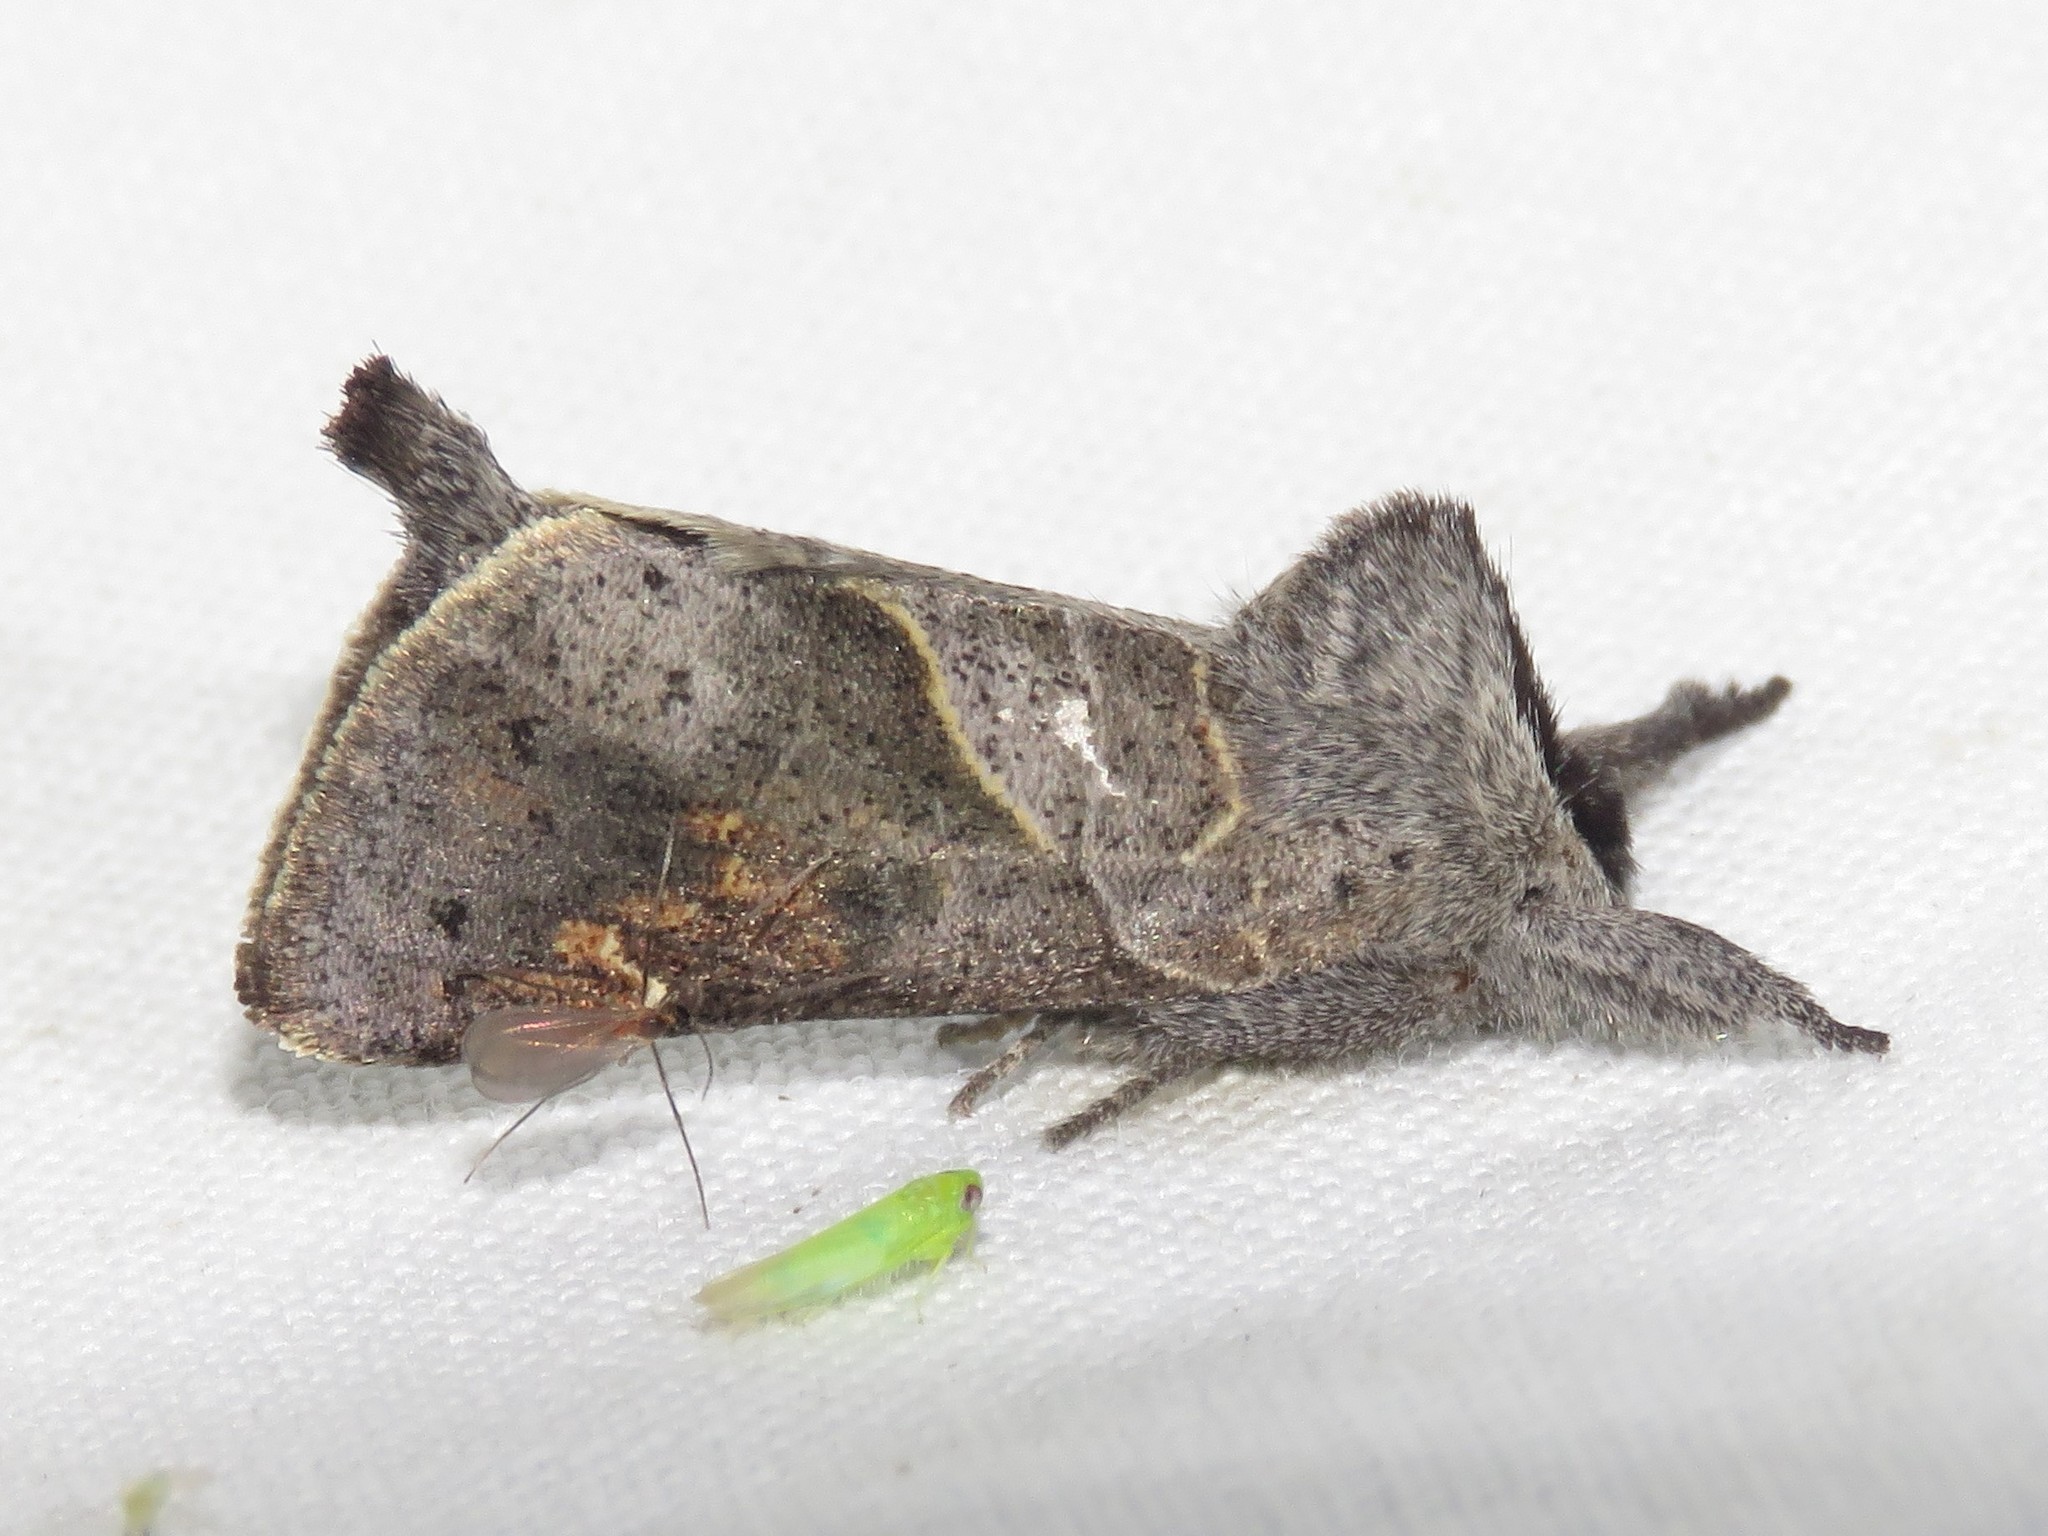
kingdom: Animalia
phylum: Arthropoda
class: Insecta
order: Lepidoptera
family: Notodontidae
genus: Clostera
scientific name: Clostera apicalis
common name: Apical prominent
